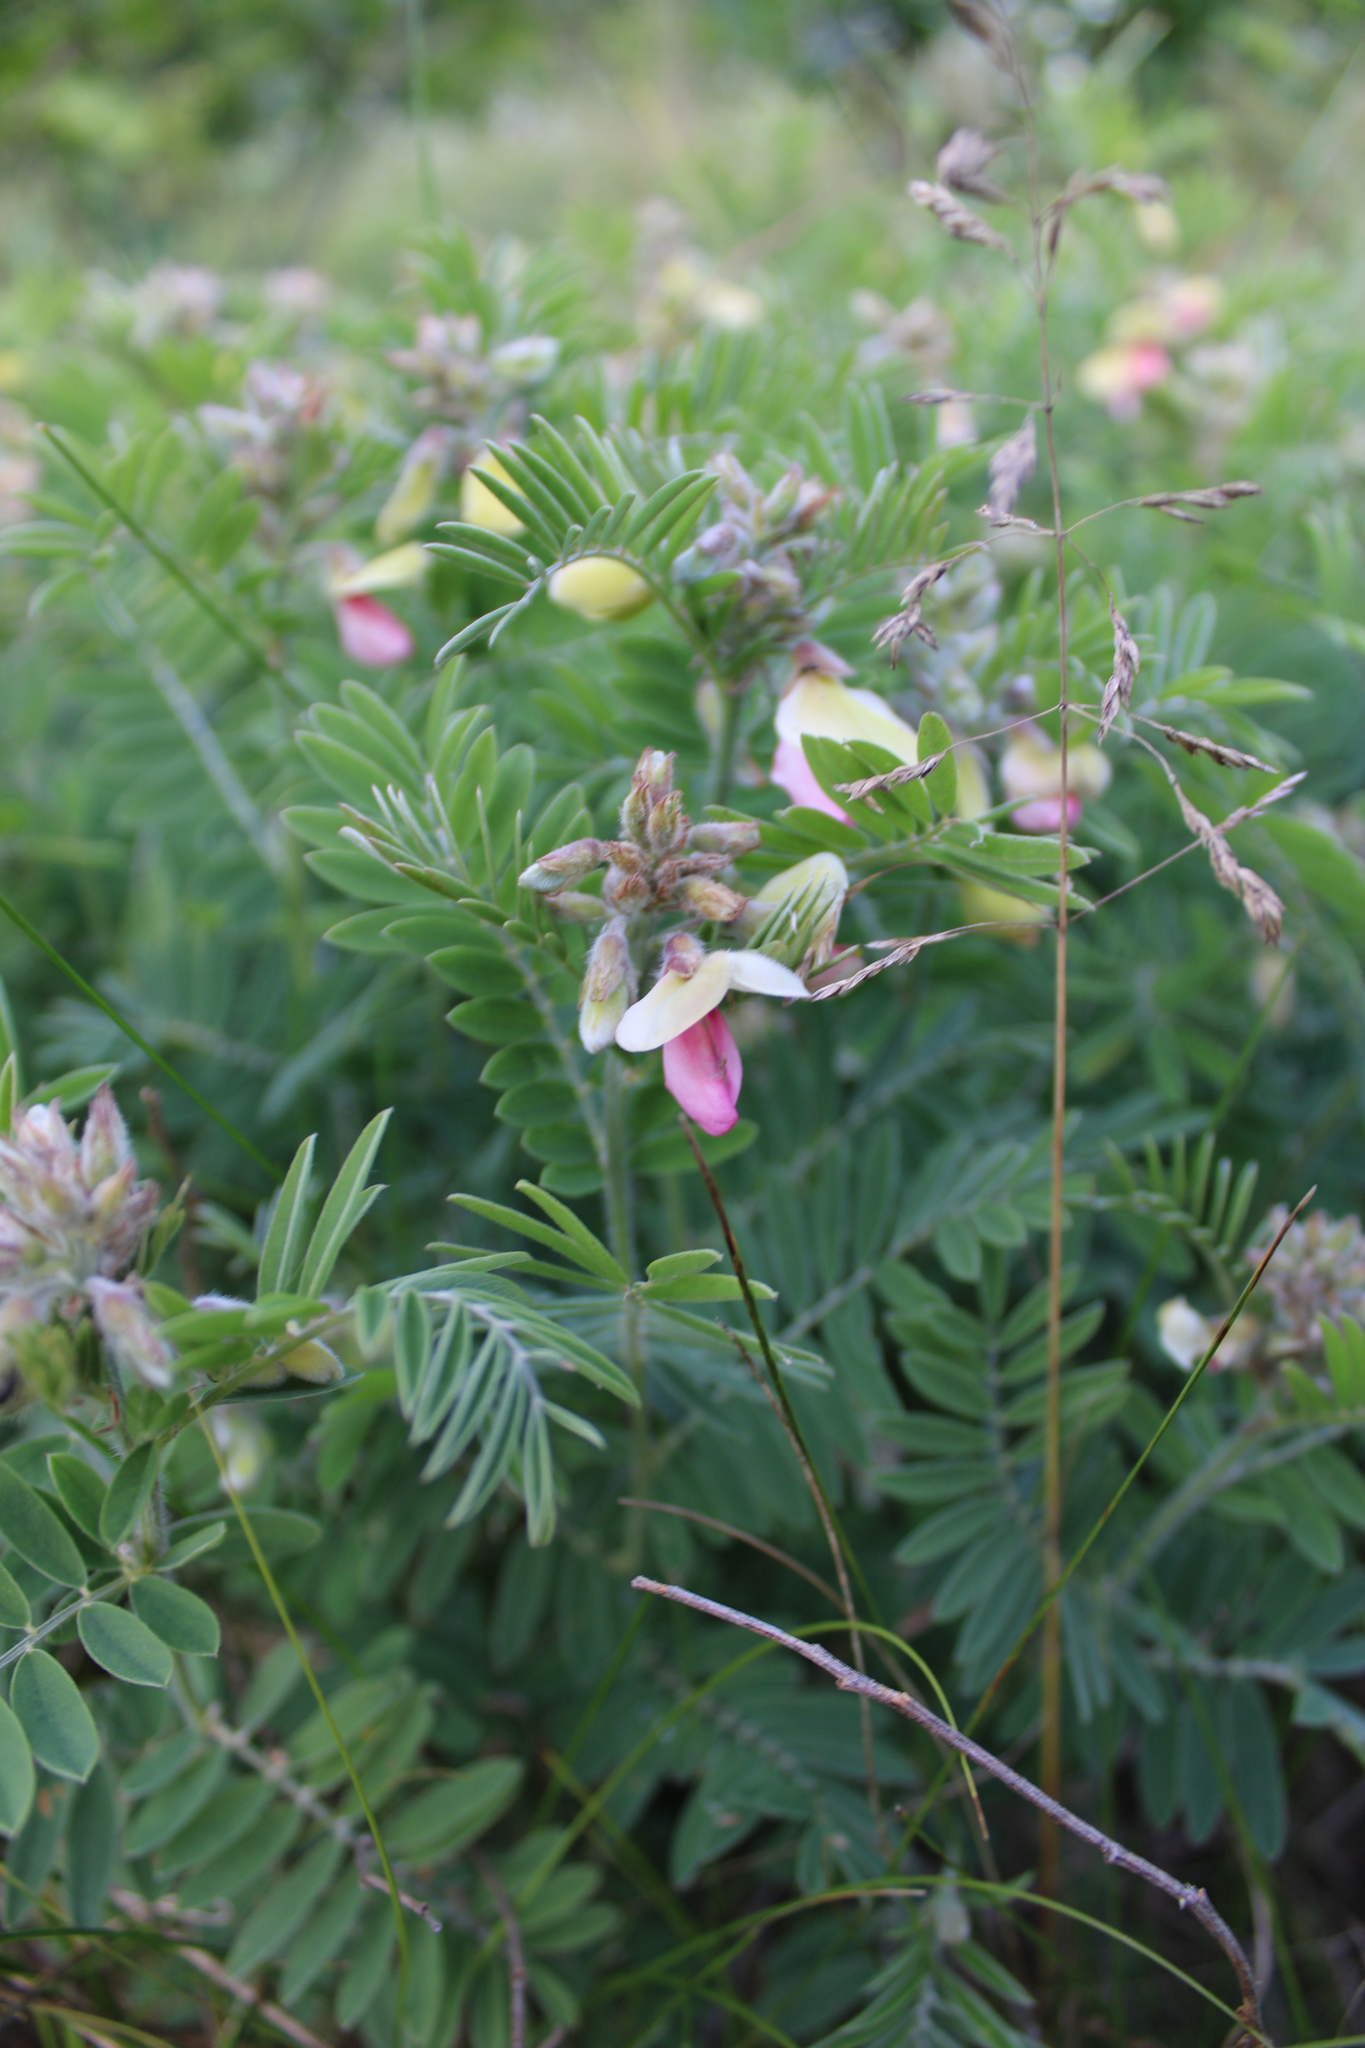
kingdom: Plantae
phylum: Tracheophyta
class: Magnoliopsida
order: Fabales
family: Fabaceae
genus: Tephrosia
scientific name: Tephrosia virginiana
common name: Rabbit-pea
